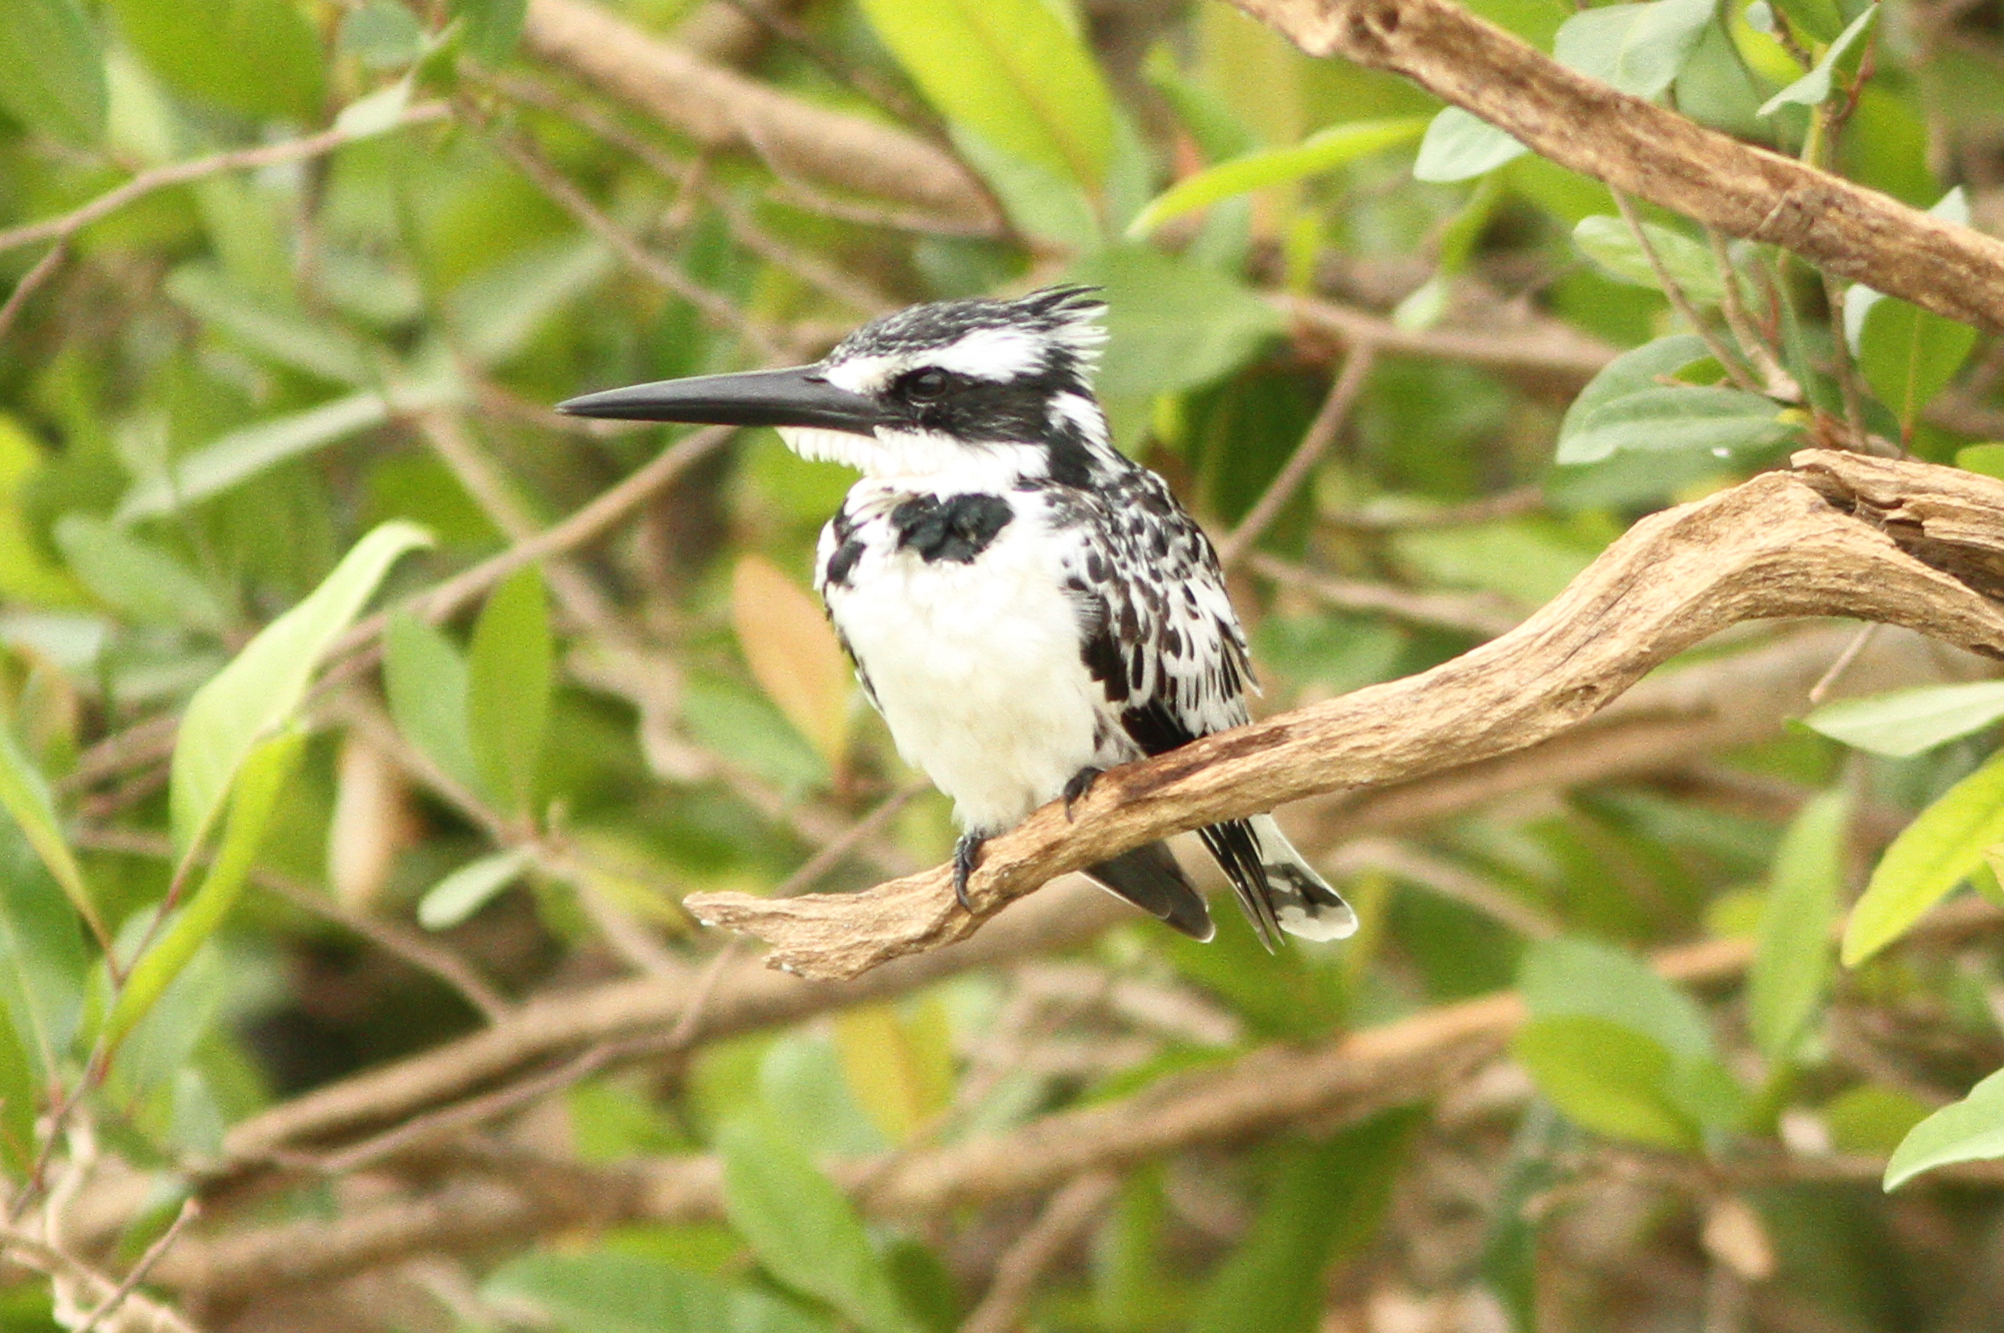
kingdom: Animalia
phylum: Chordata
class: Aves
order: Coraciiformes
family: Alcedinidae
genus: Ceryle
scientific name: Ceryle rudis
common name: Pied kingfisher
